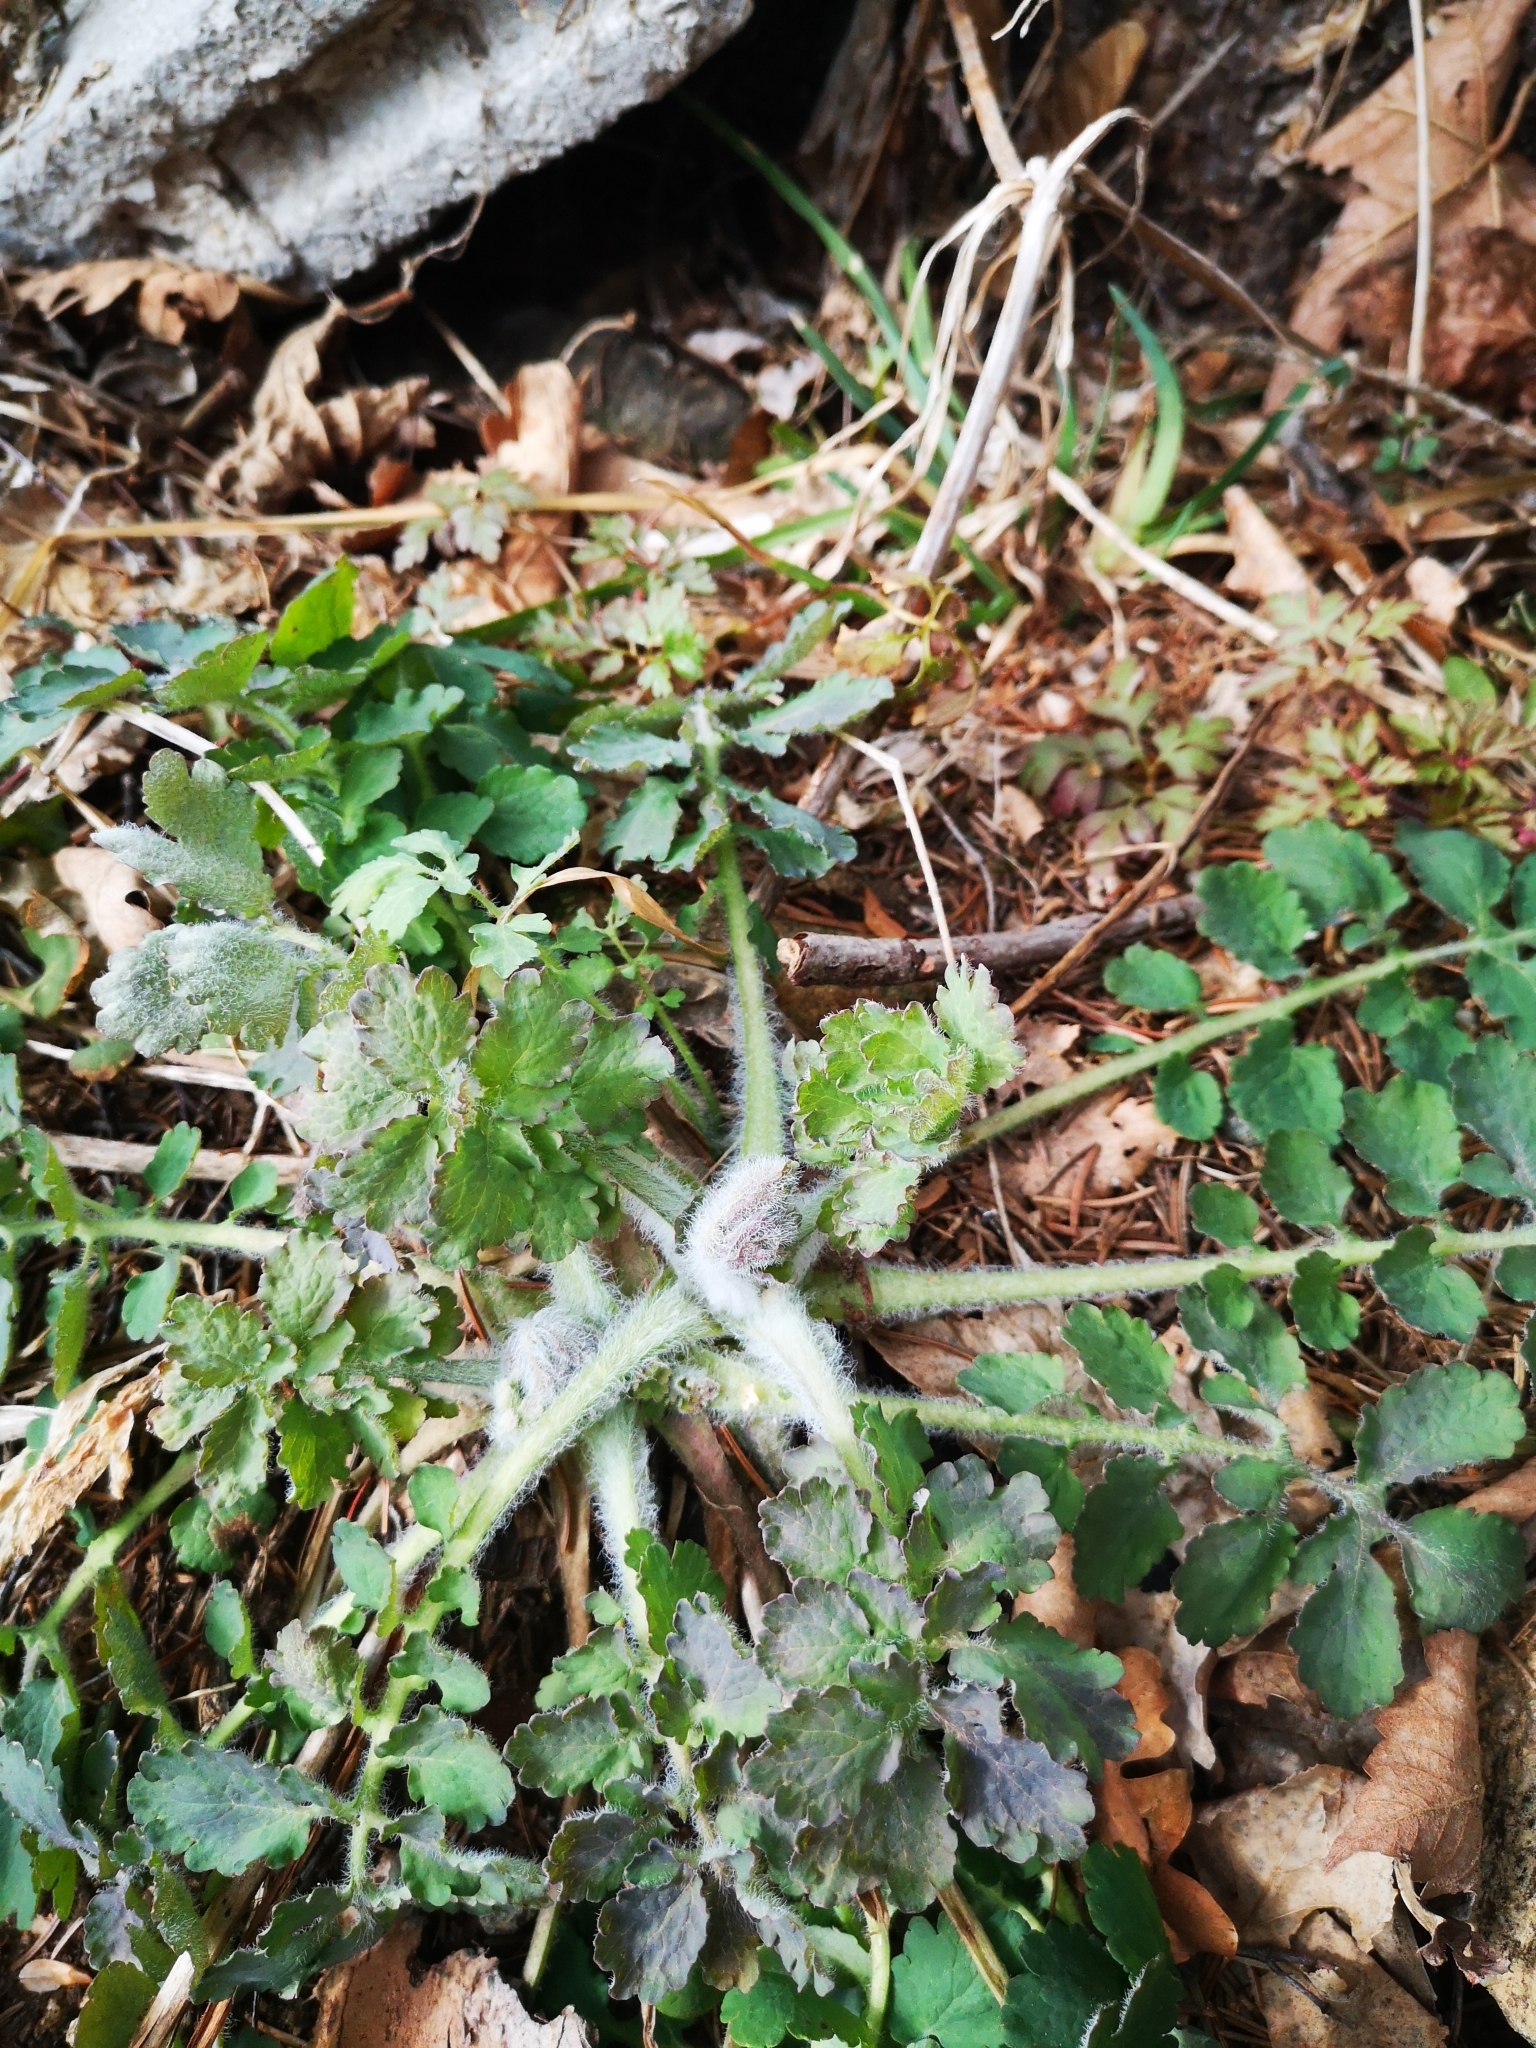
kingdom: Plantae
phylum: Tracheophyta
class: Magnoliopsida
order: Ranunculales
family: Papaveraceae
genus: Chelidonium
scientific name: Chelidonium majus
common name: Greater celandine
